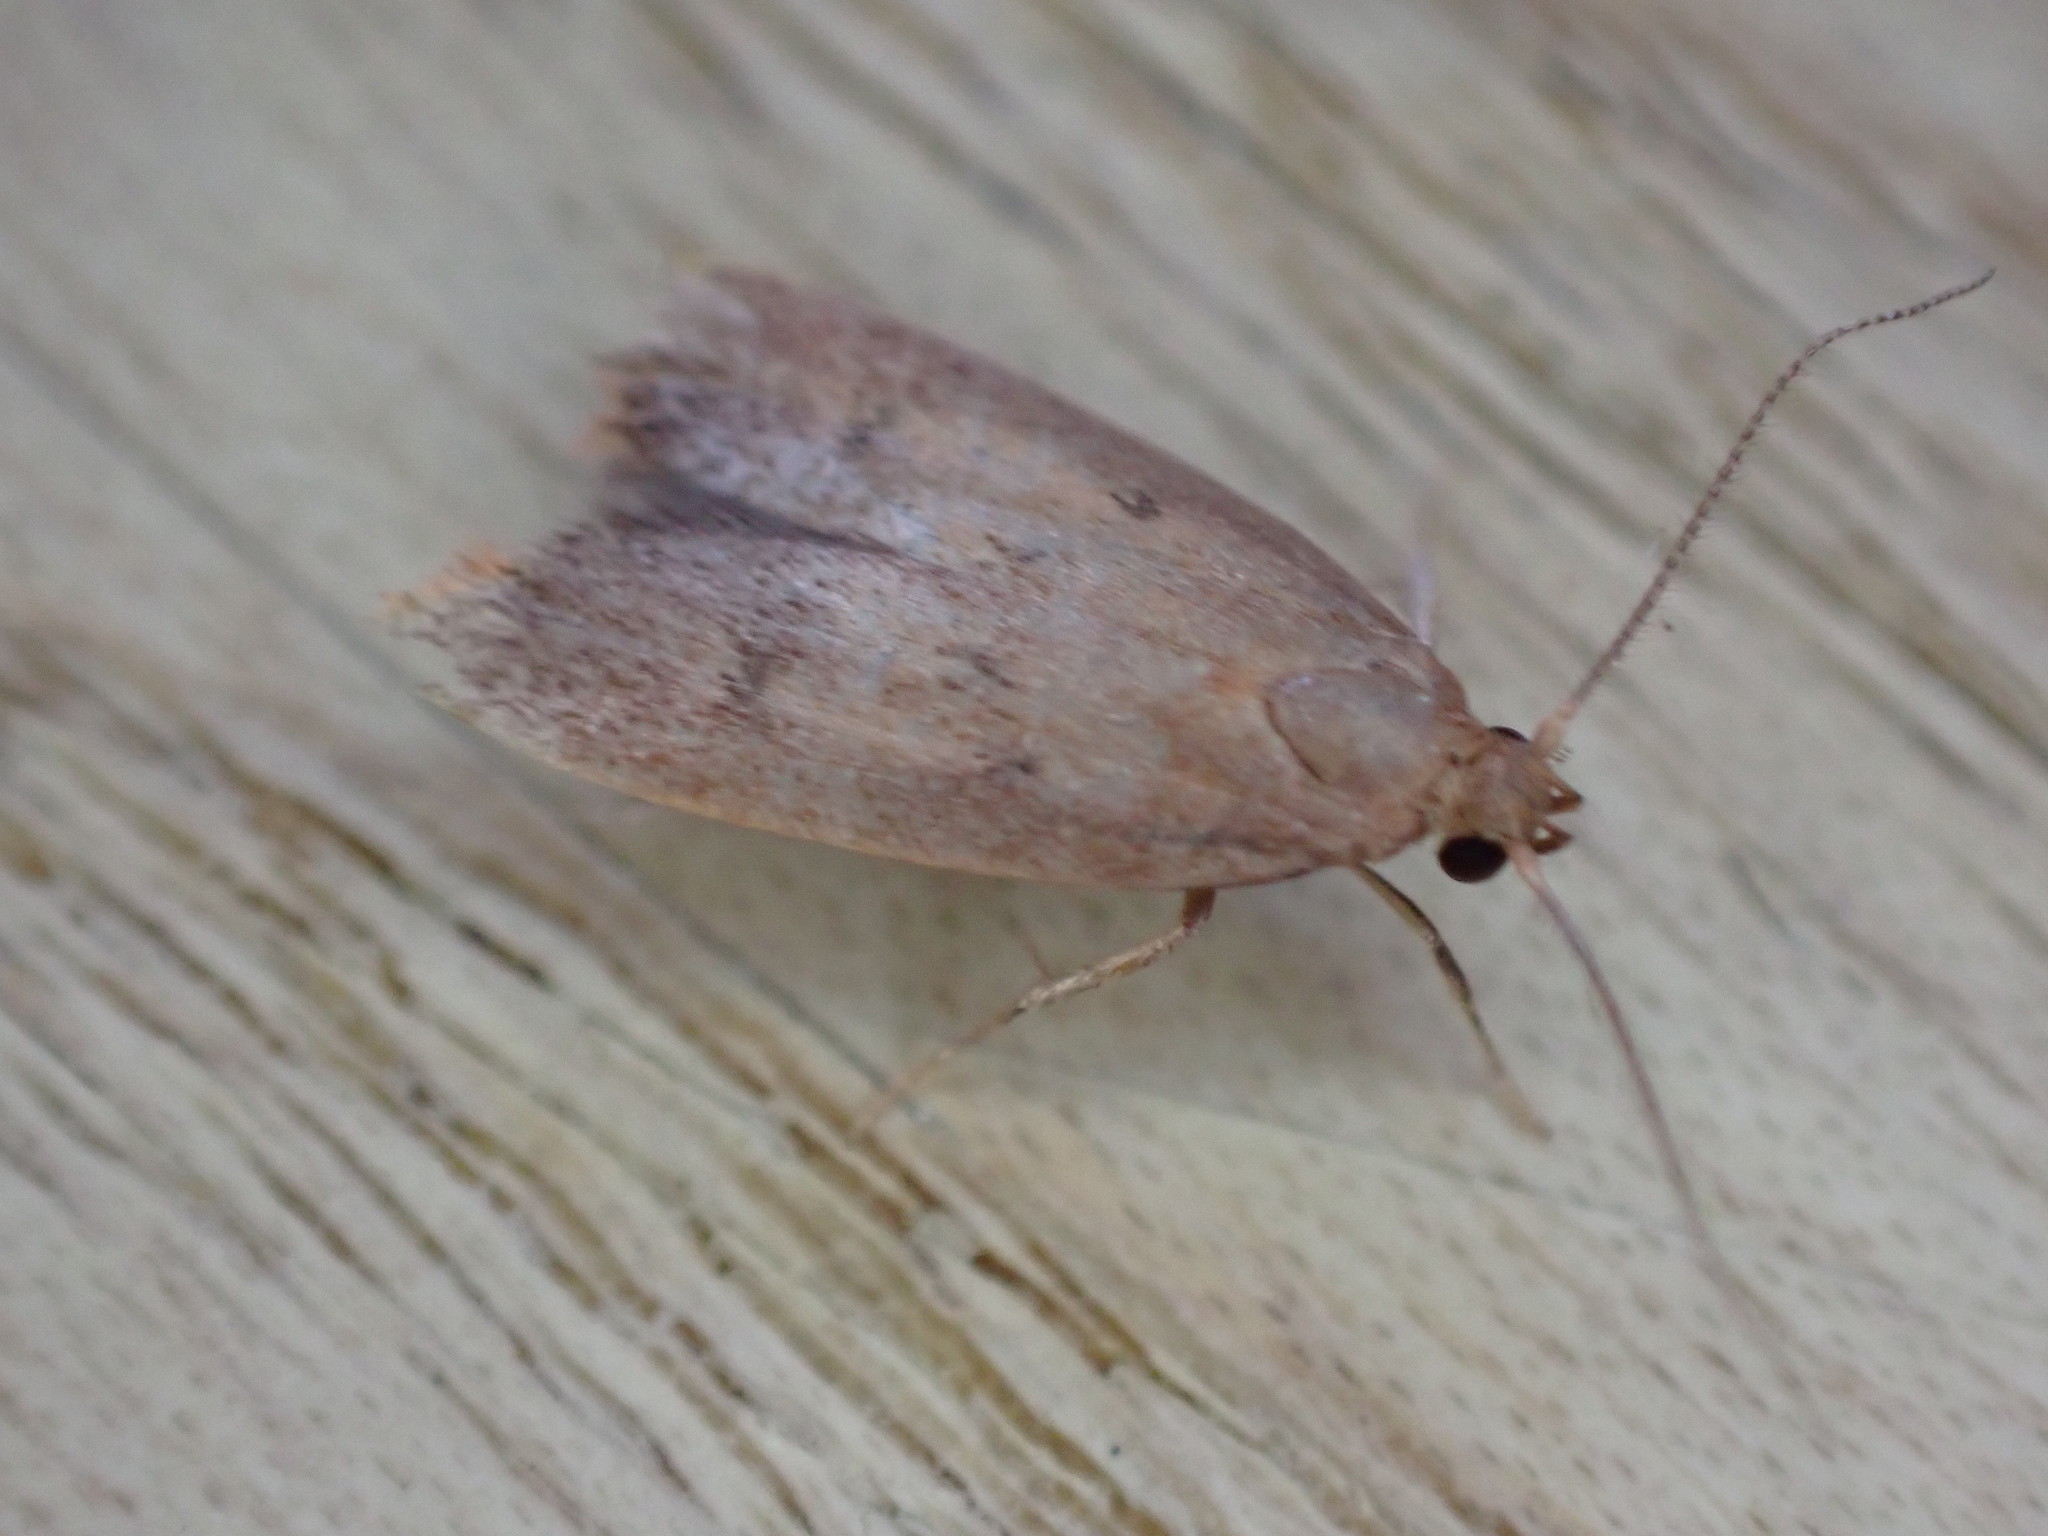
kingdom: Animalia
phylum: Arthropoda
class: Insecta
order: Lepidoptera
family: Oecophoridae
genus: Tachystola
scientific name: Tachystola acroxantha
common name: Ruddy streak
